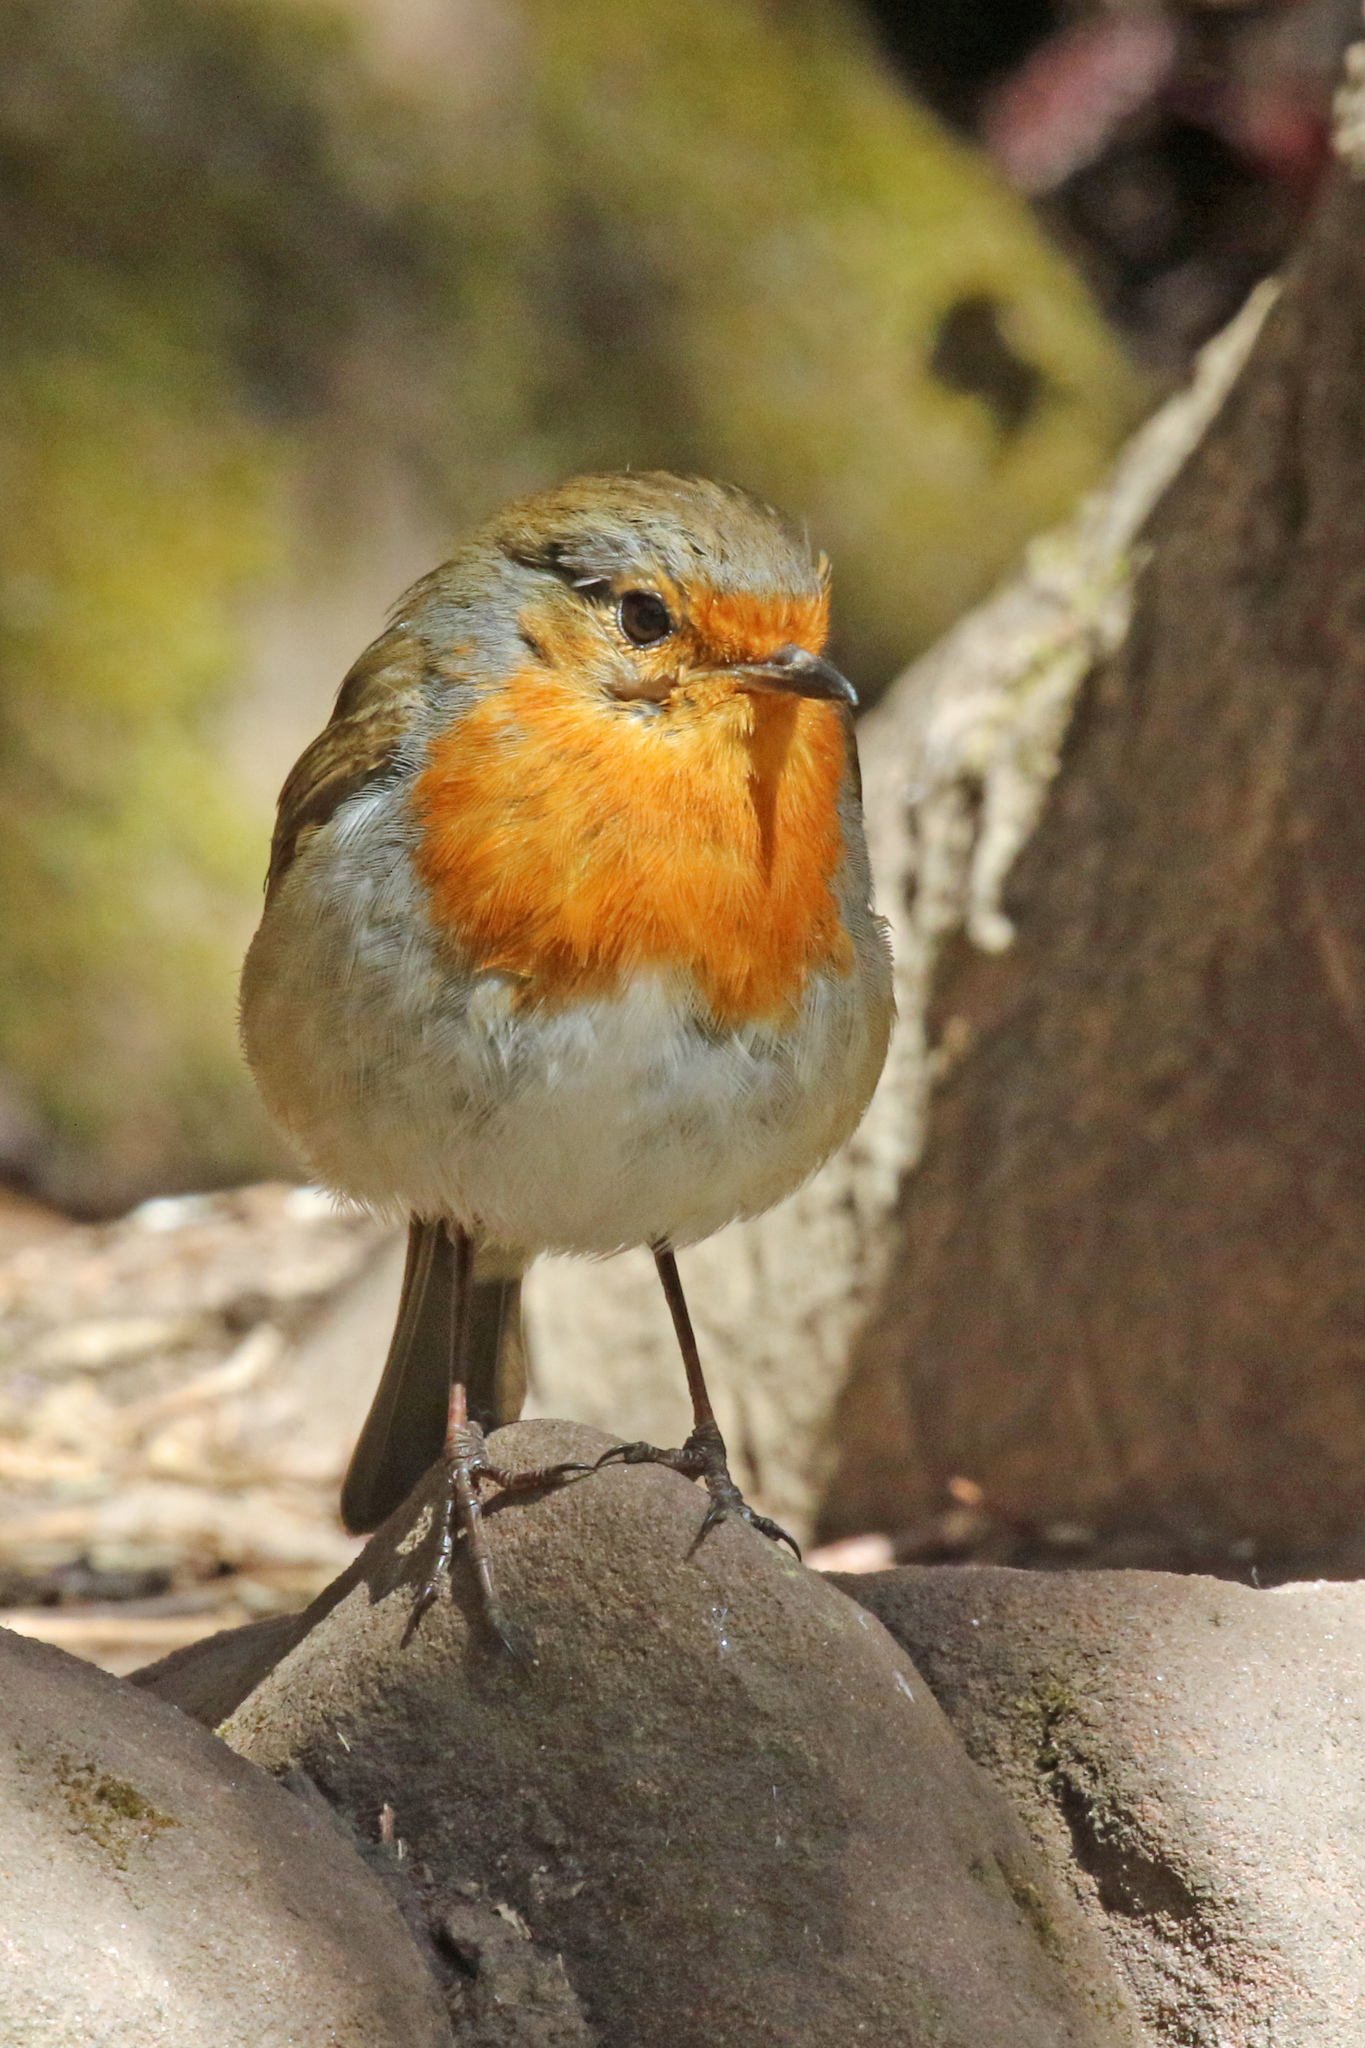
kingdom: Animalia
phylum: Chordata
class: Aves
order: Passeriformes
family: Muscicapidae
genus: Erithacus
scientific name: Erithacus rubecula
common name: European robin
